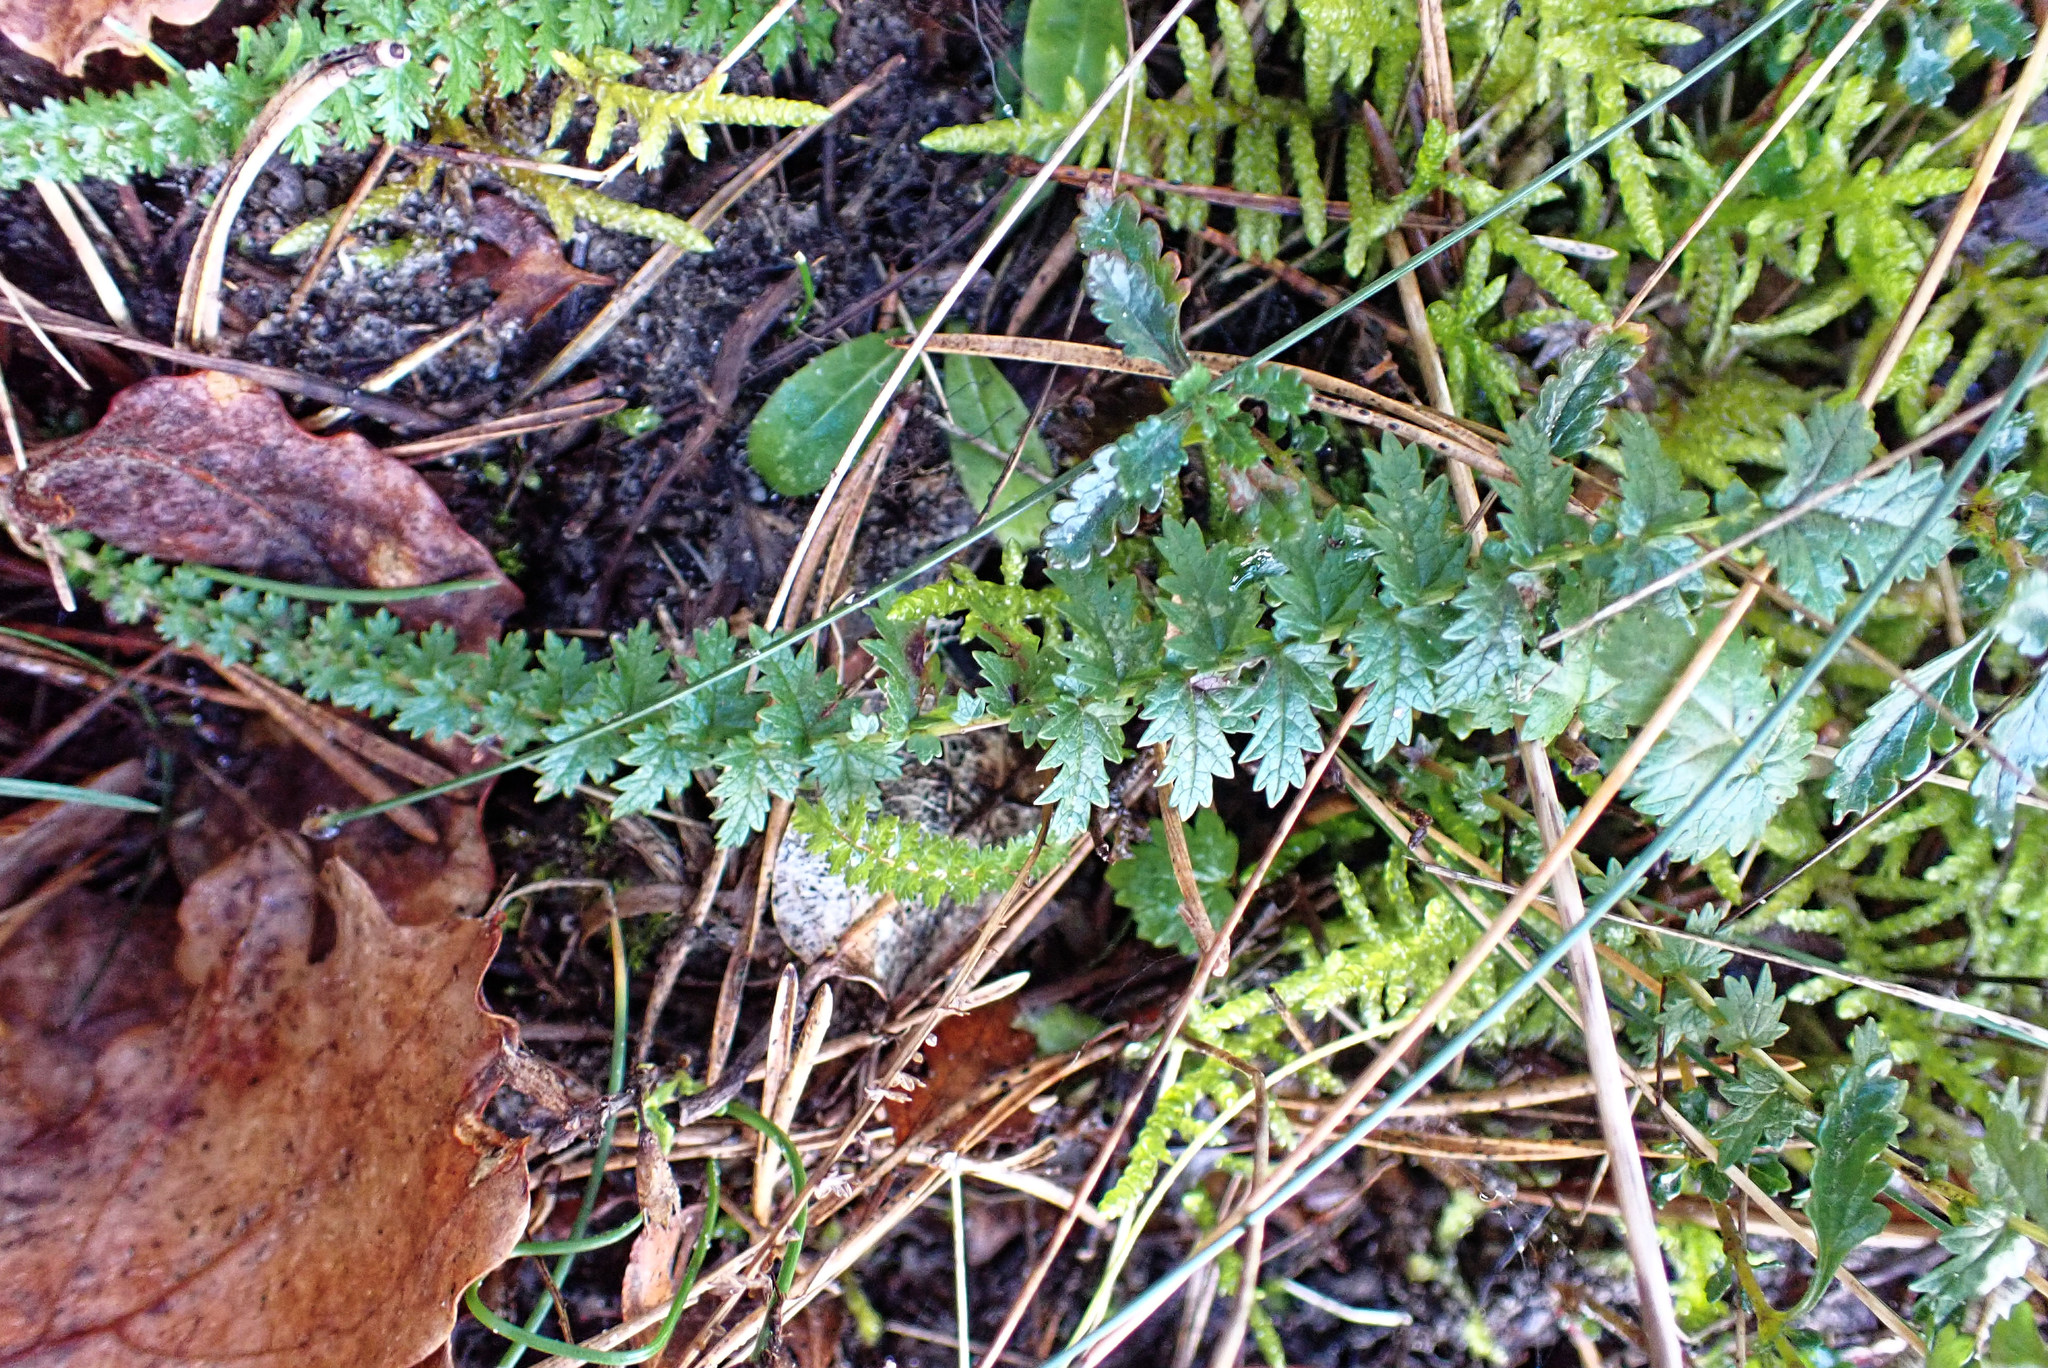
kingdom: Plantae
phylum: Tracheophyta
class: Magnoliopsida
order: Rosales
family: Rosaceae
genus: Filipendula
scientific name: Filipendula vulgaris
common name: Dropwort
